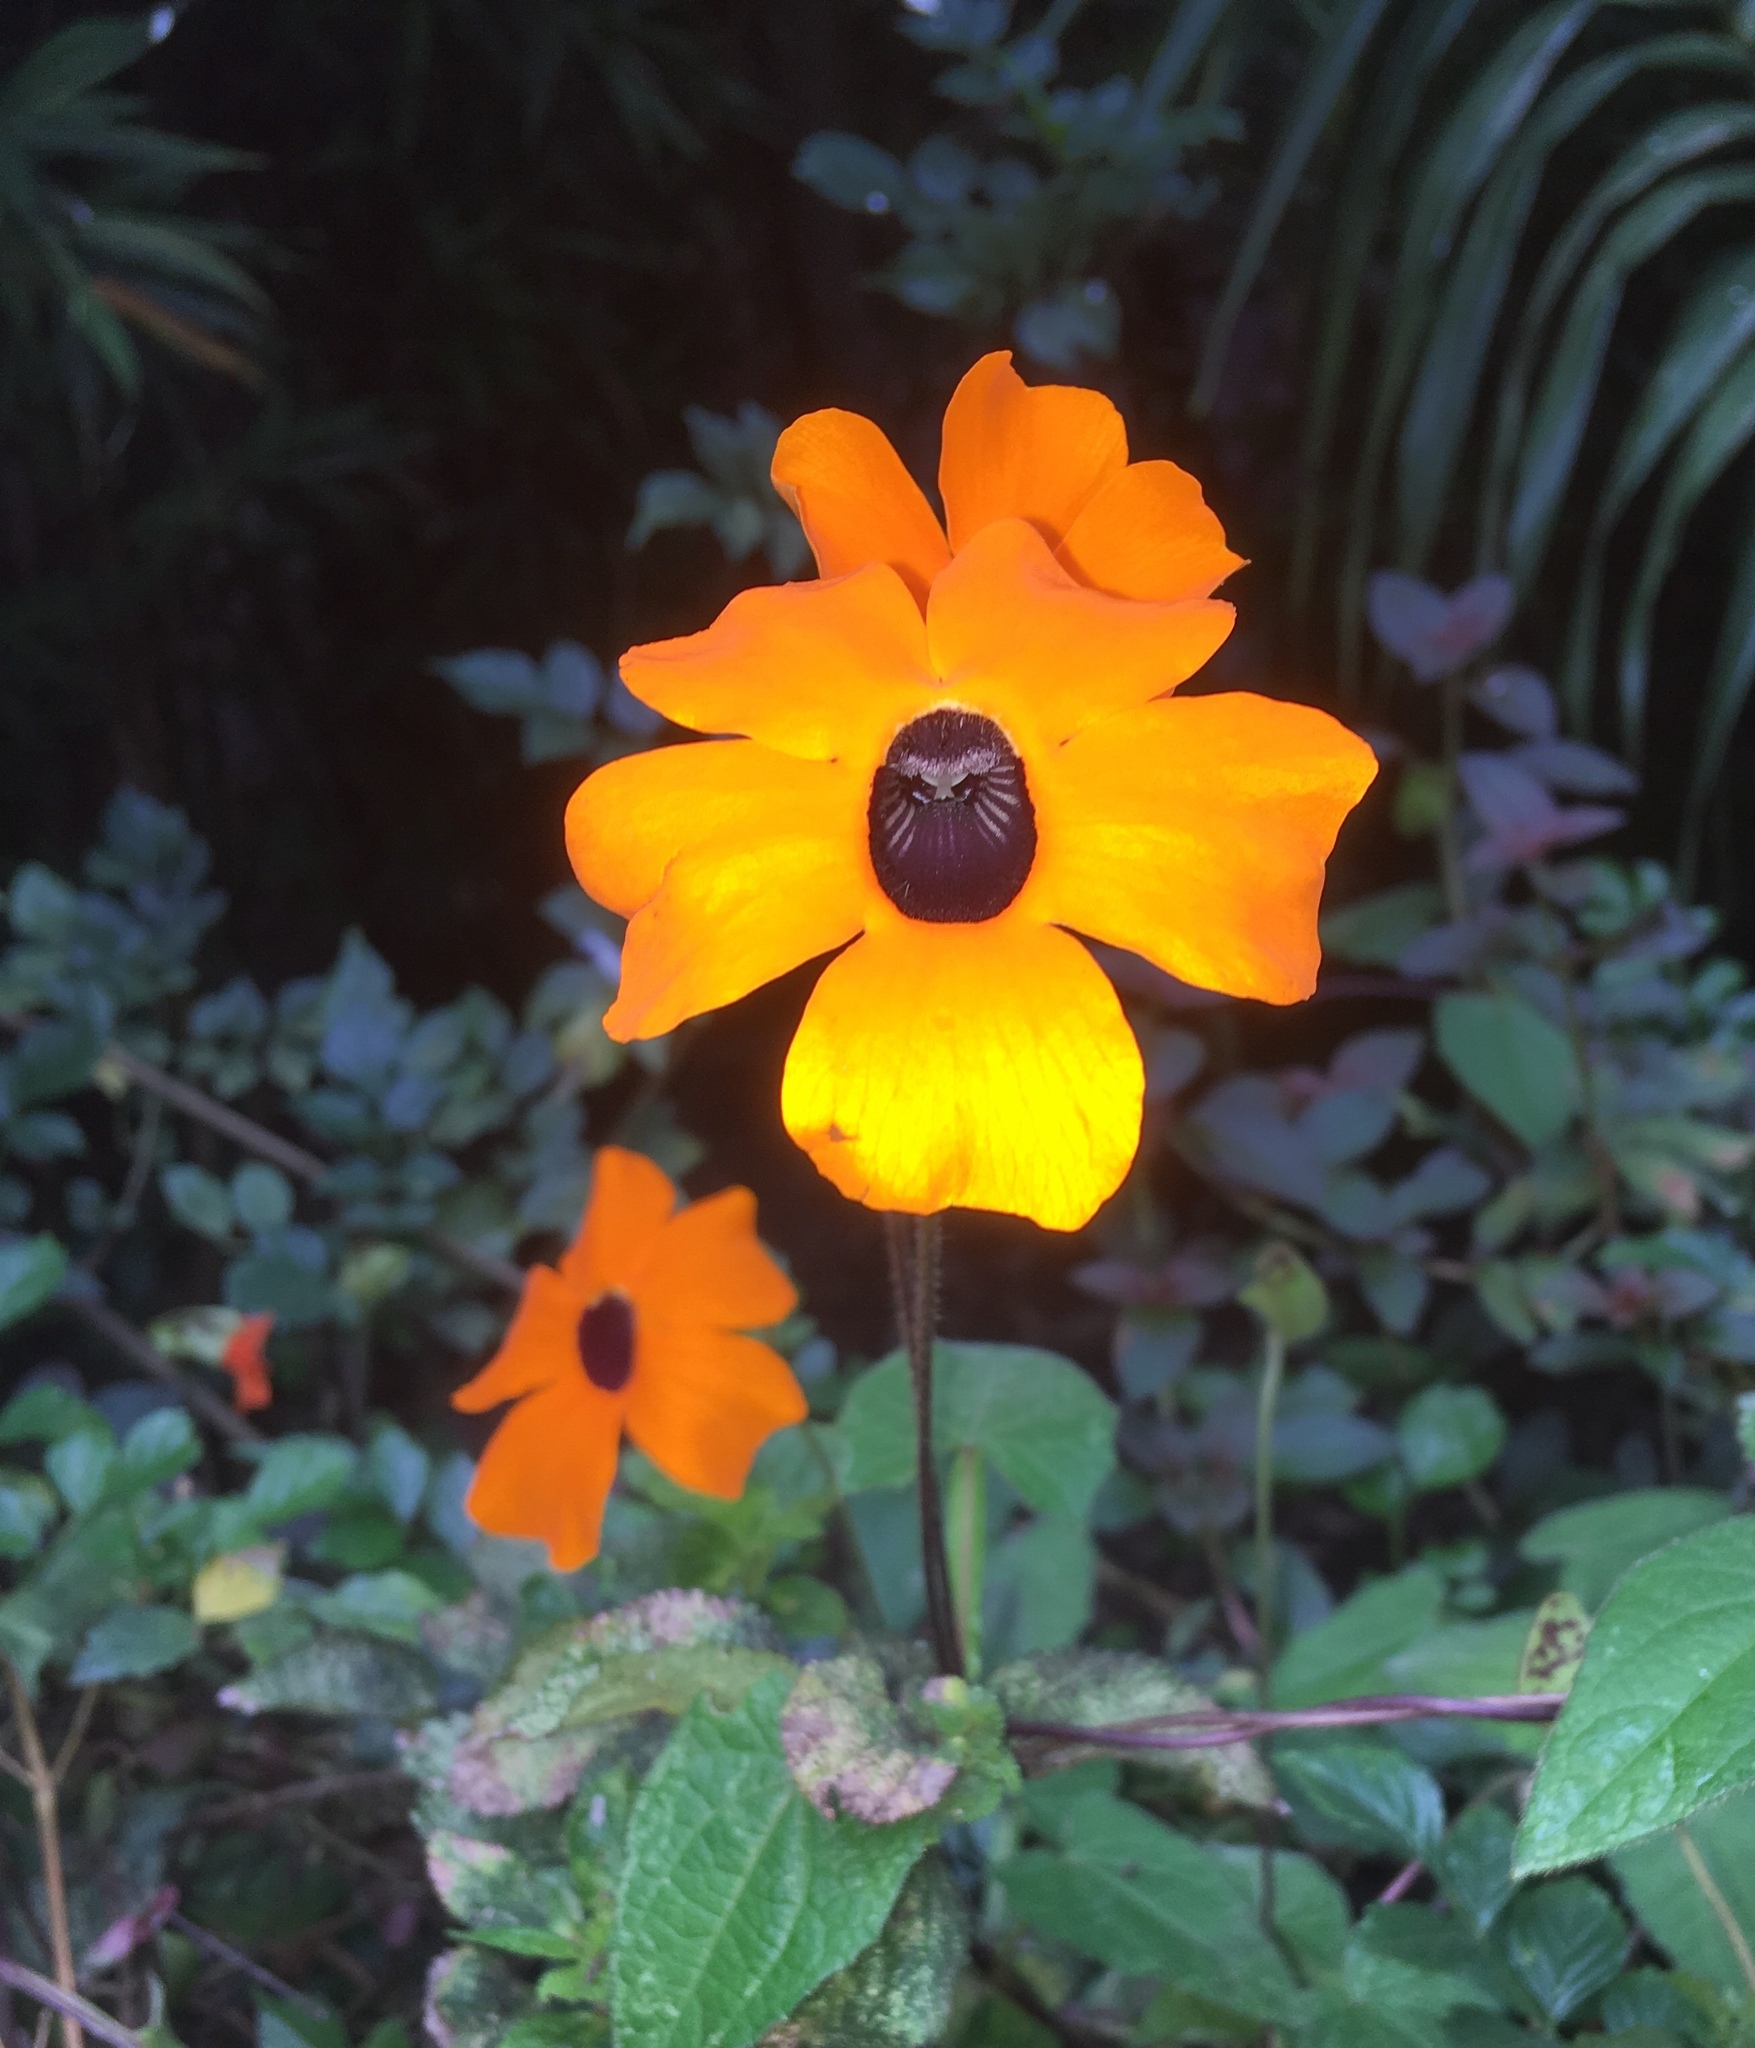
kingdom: Plantae
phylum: Tracheophyta
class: Magnoliopsida
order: Lamiales
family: Acanthaceae
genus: Thunbergia
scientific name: Thunbergia alata
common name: Blackeyed susan vine
